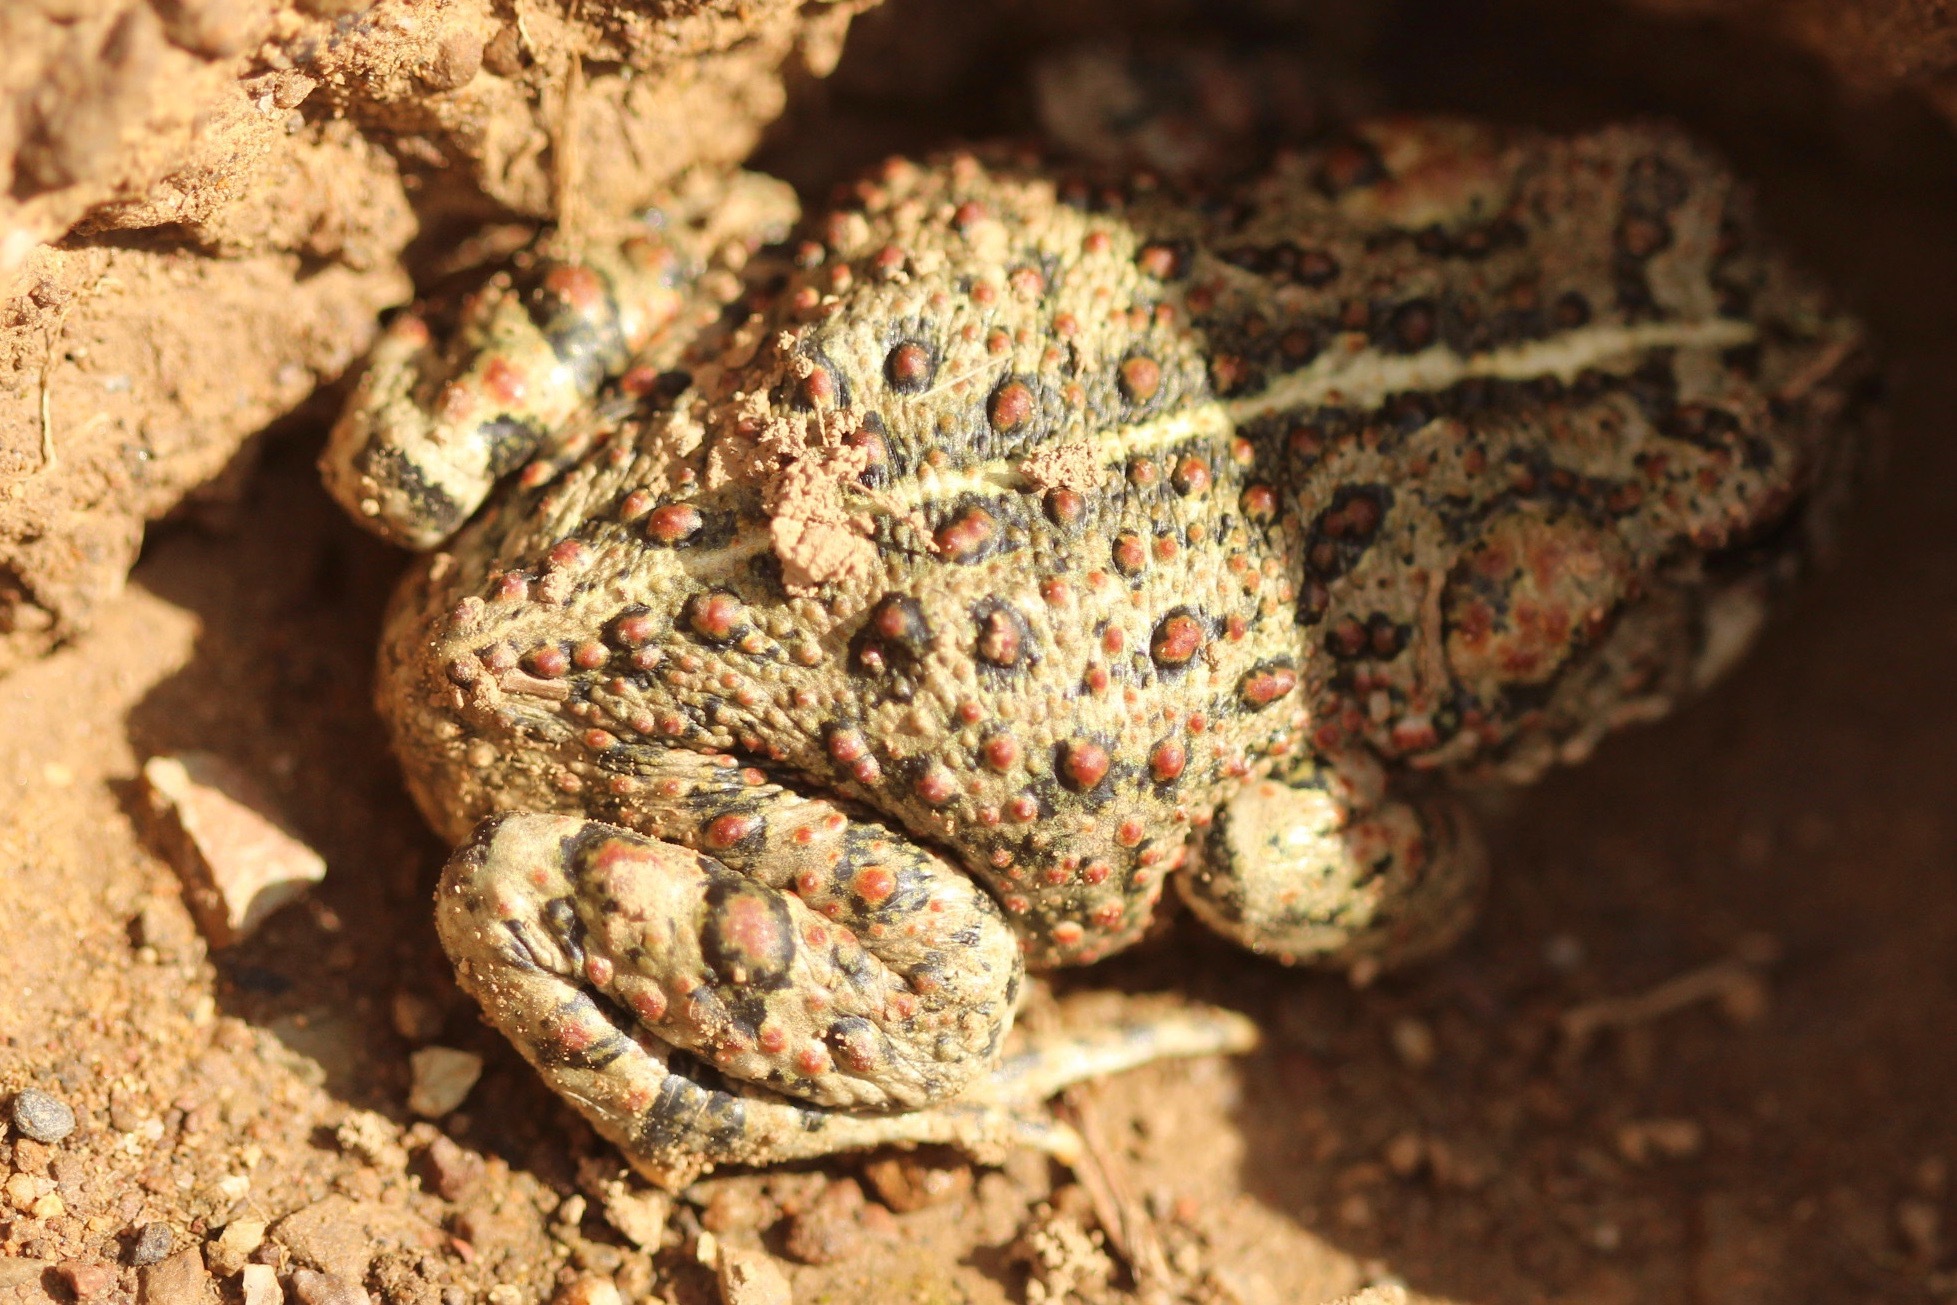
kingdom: Animalia
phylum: Chordata
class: Amphibia
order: Anura
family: Bufonidae
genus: Anaxyrus
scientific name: Anaxyrus boreas
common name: Western toad
